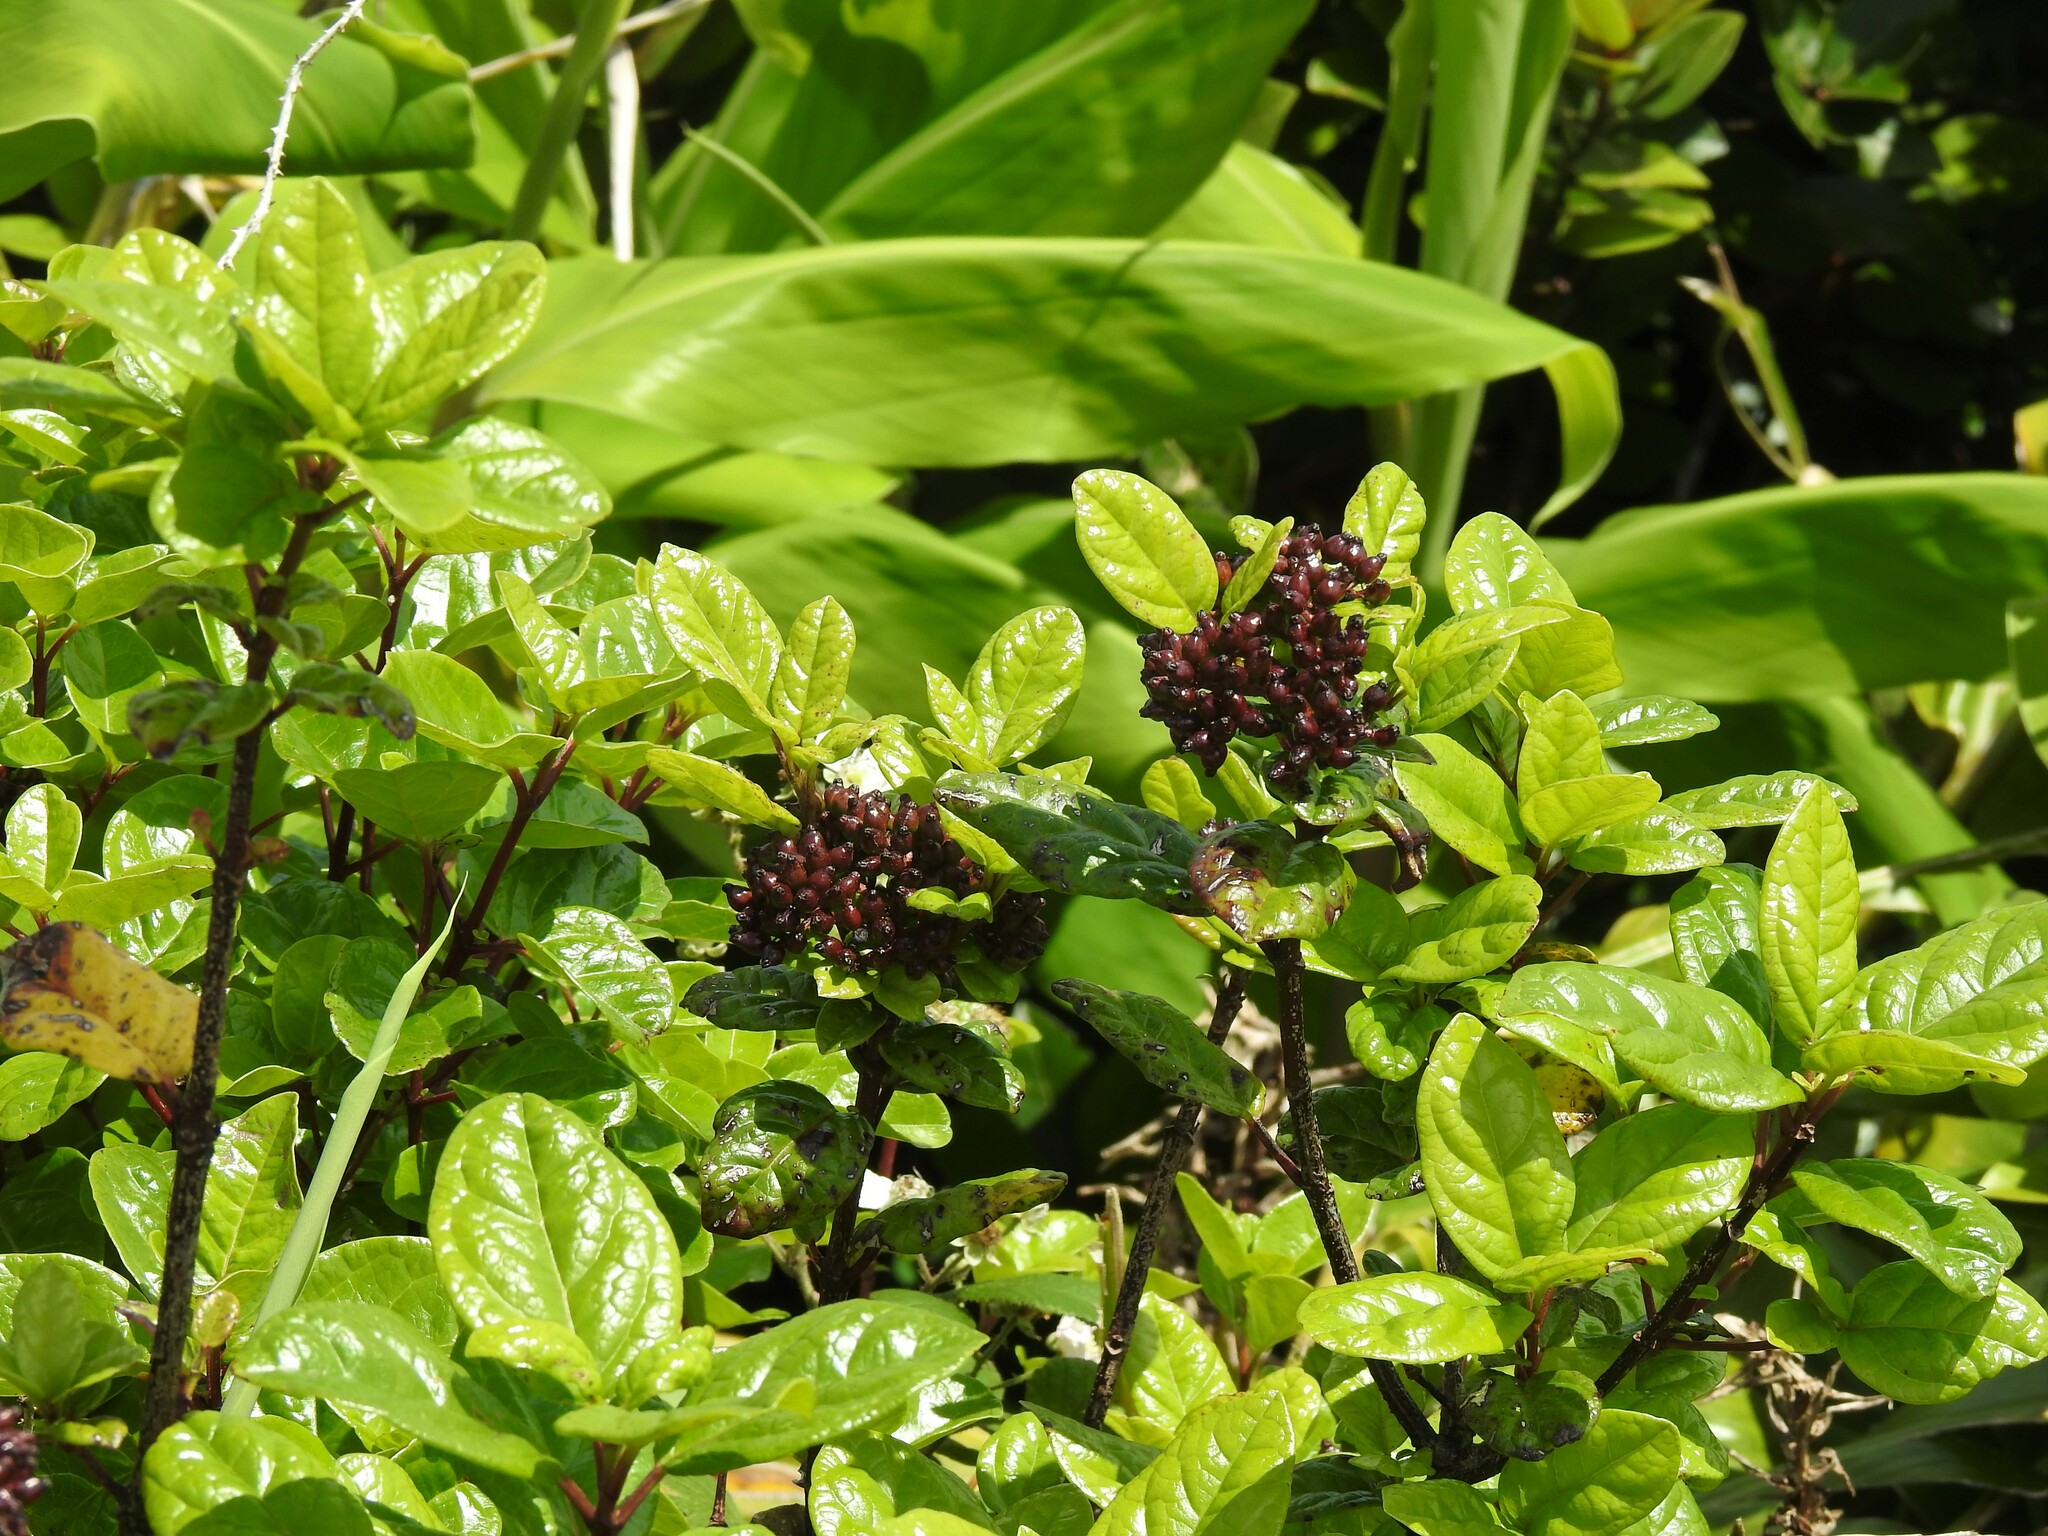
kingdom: Plantae
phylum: Tracheophyta
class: Magnoliopsida
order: Dipsacales
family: Viburnaceae
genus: Viburnum
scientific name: Viburnum treleasei
